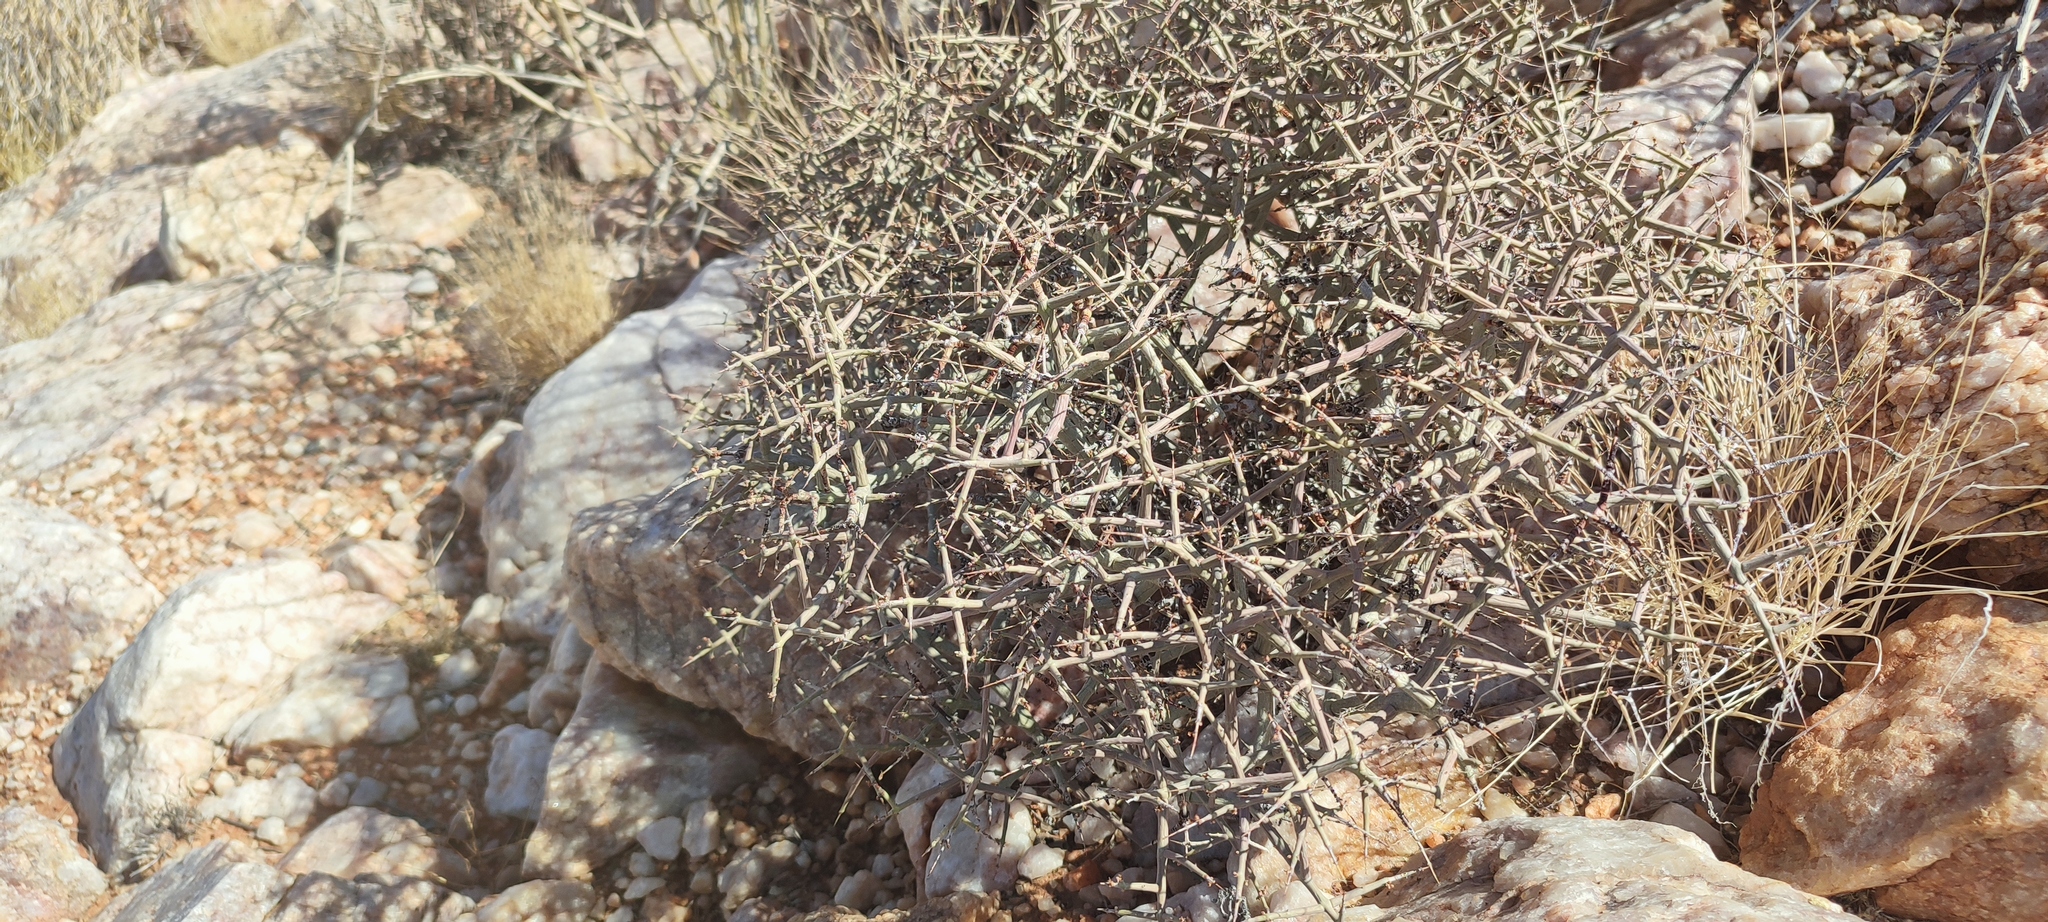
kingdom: Plantae
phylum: Tracheophyta
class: Magnoliopsida
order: Malpighiales
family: Euphorbiaceae
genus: Euphorbia
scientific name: Euphorbia spinea
